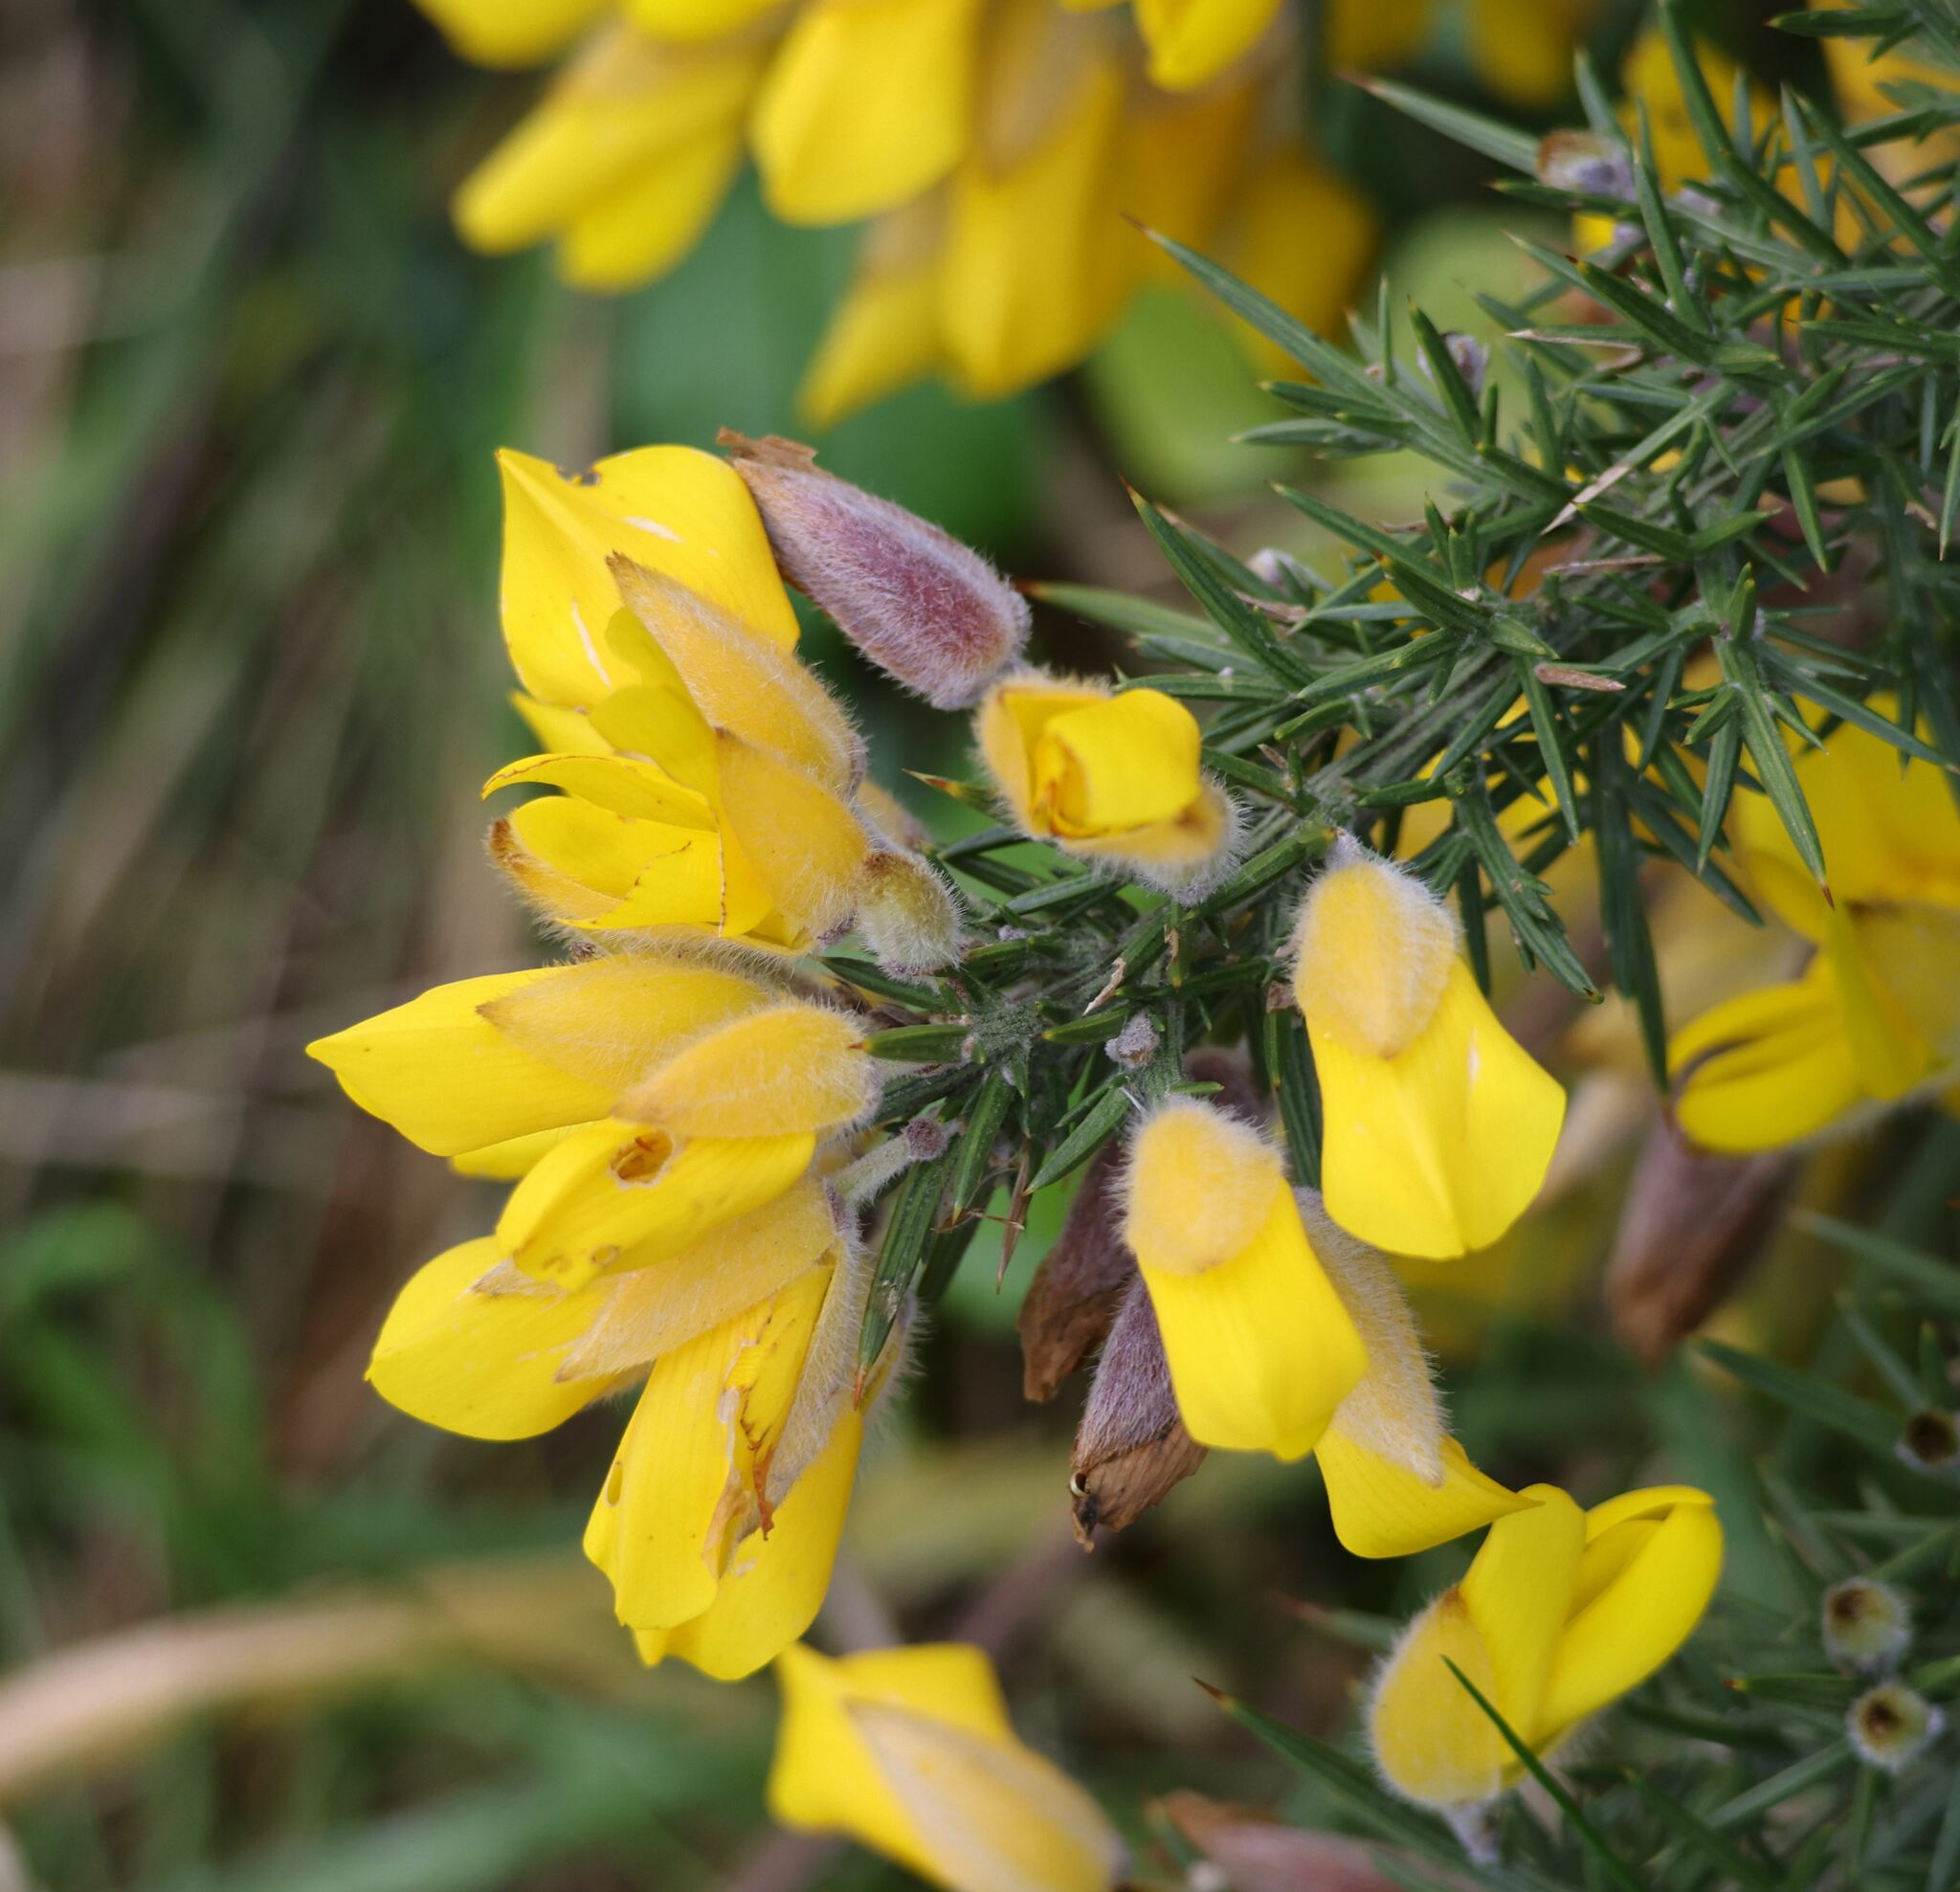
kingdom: Plantae
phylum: Tracheophyta
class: Magnoliopsida
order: Fabales
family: Fabaceae
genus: Ulex
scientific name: Ulex europaeus
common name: Common gorse
